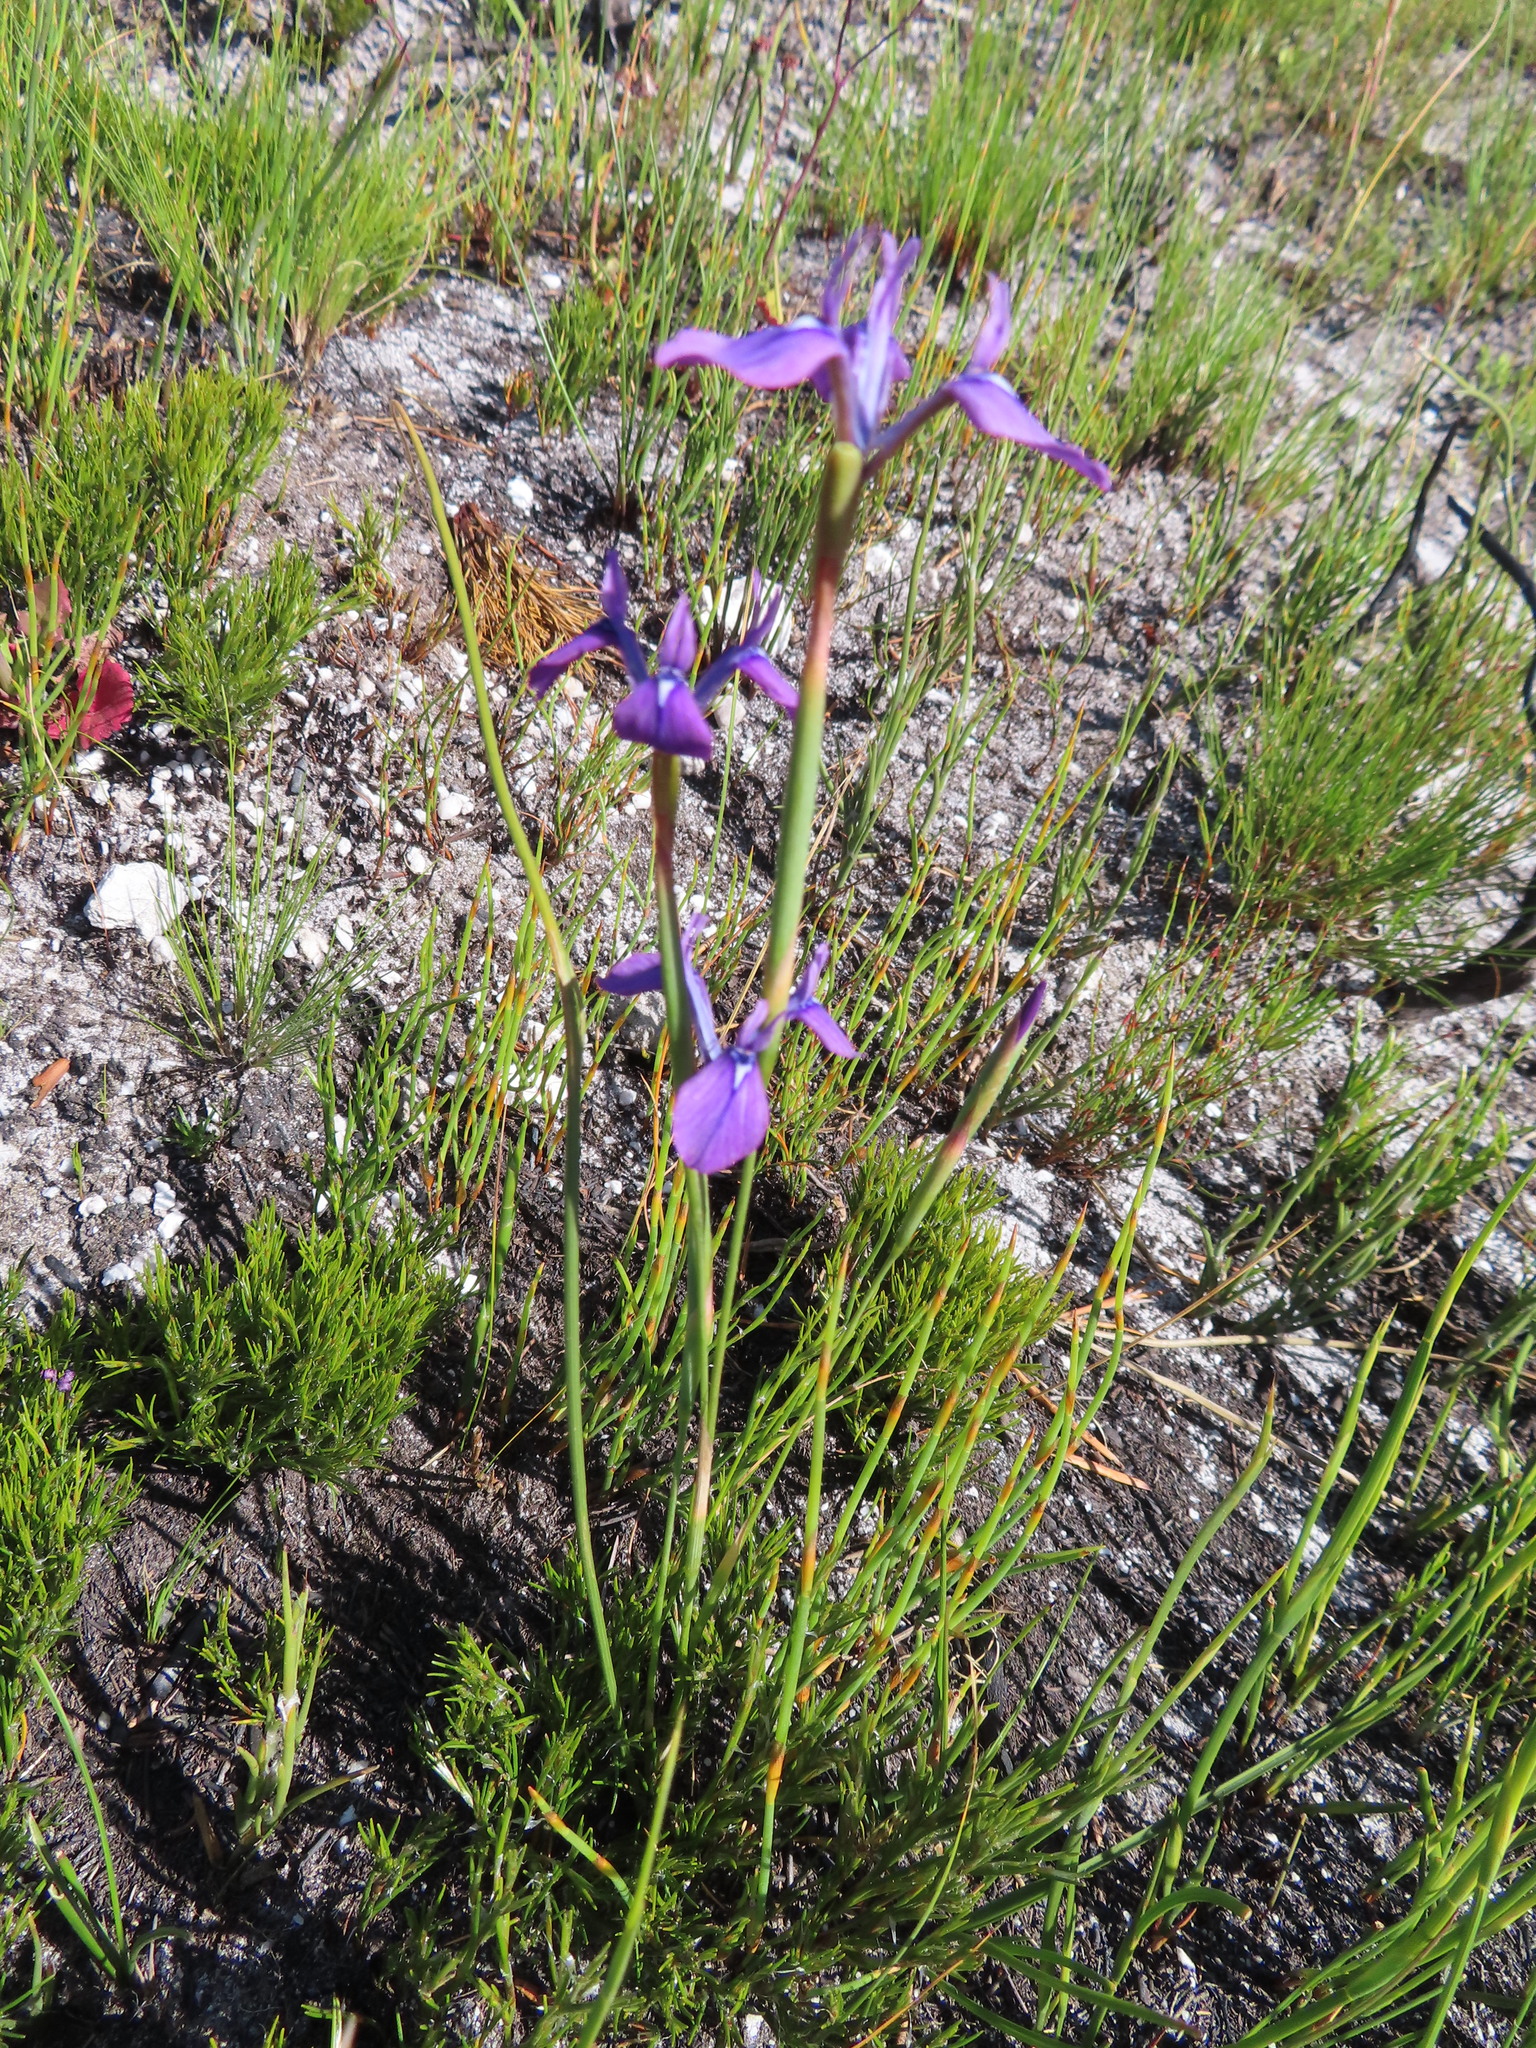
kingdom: Plantae
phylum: Tracheophyta
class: Liliopsida
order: Asparagales
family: Iridaceae
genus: Moraea
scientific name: Moraea tripetala
